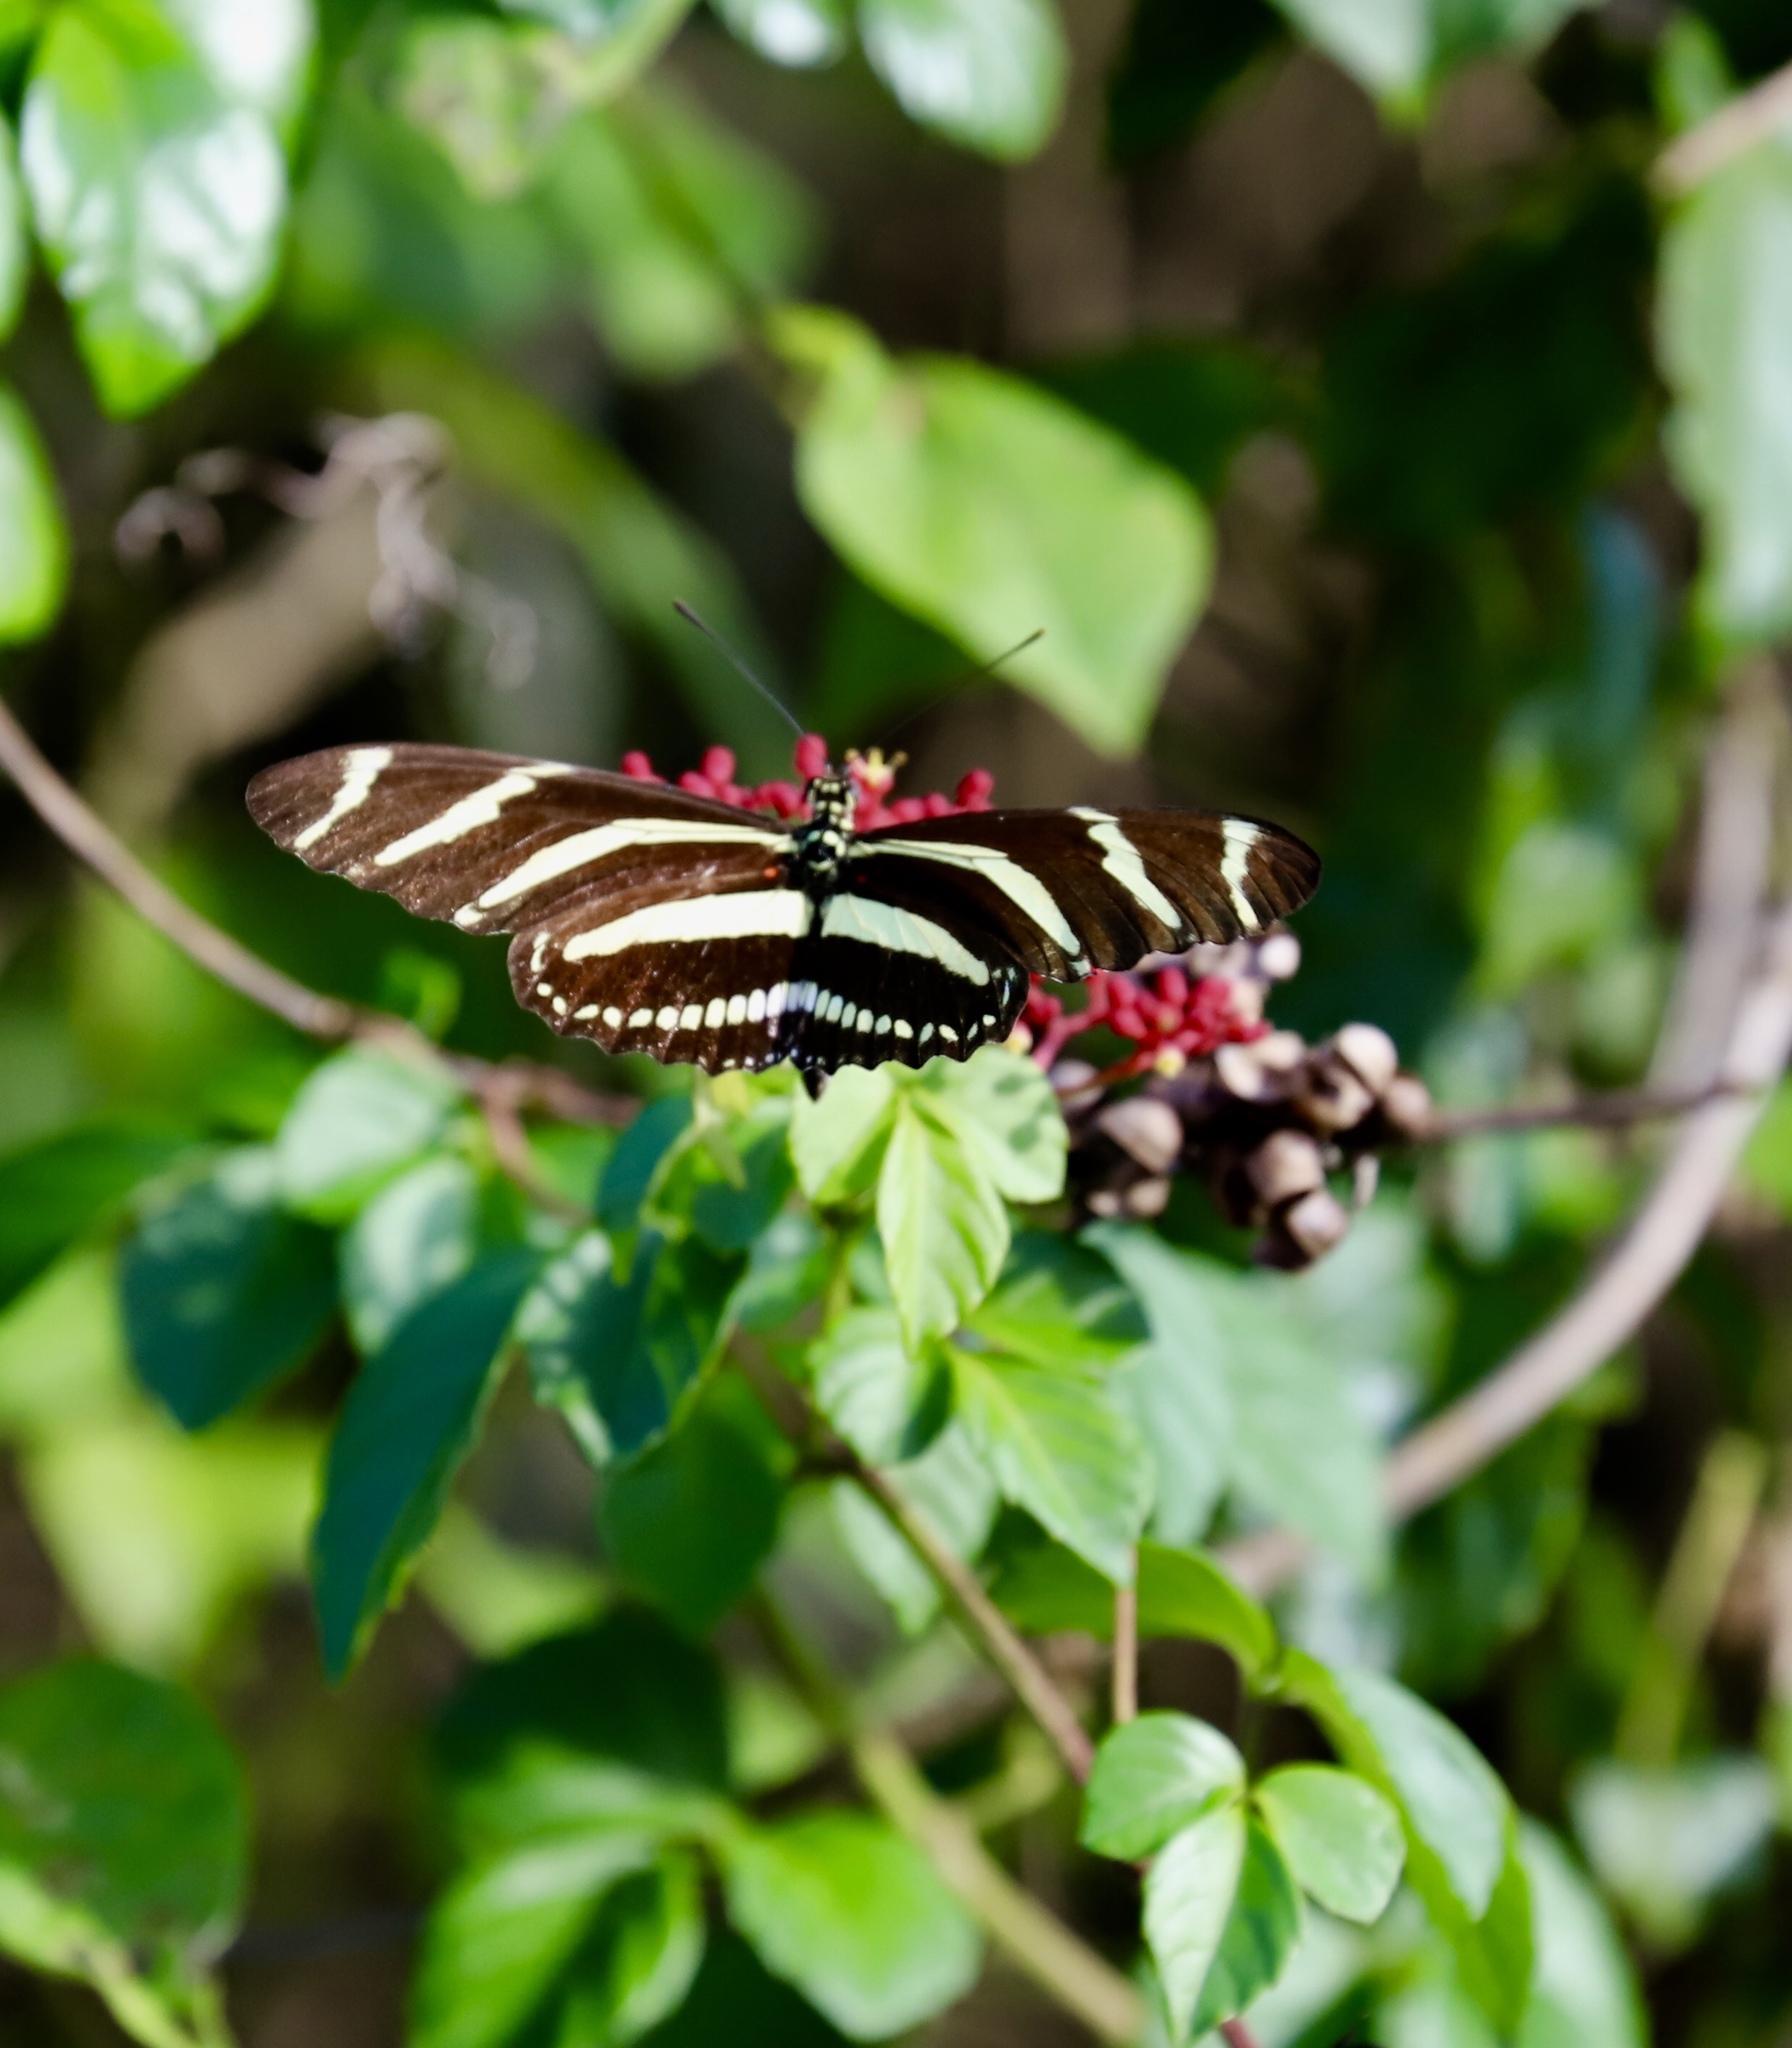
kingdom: Animalia
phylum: Arthropoda
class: Insecta
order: Lepidoptera
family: Nymphalidae
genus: Heliconius
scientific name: Heliconius charithonia
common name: Zebra long wing
